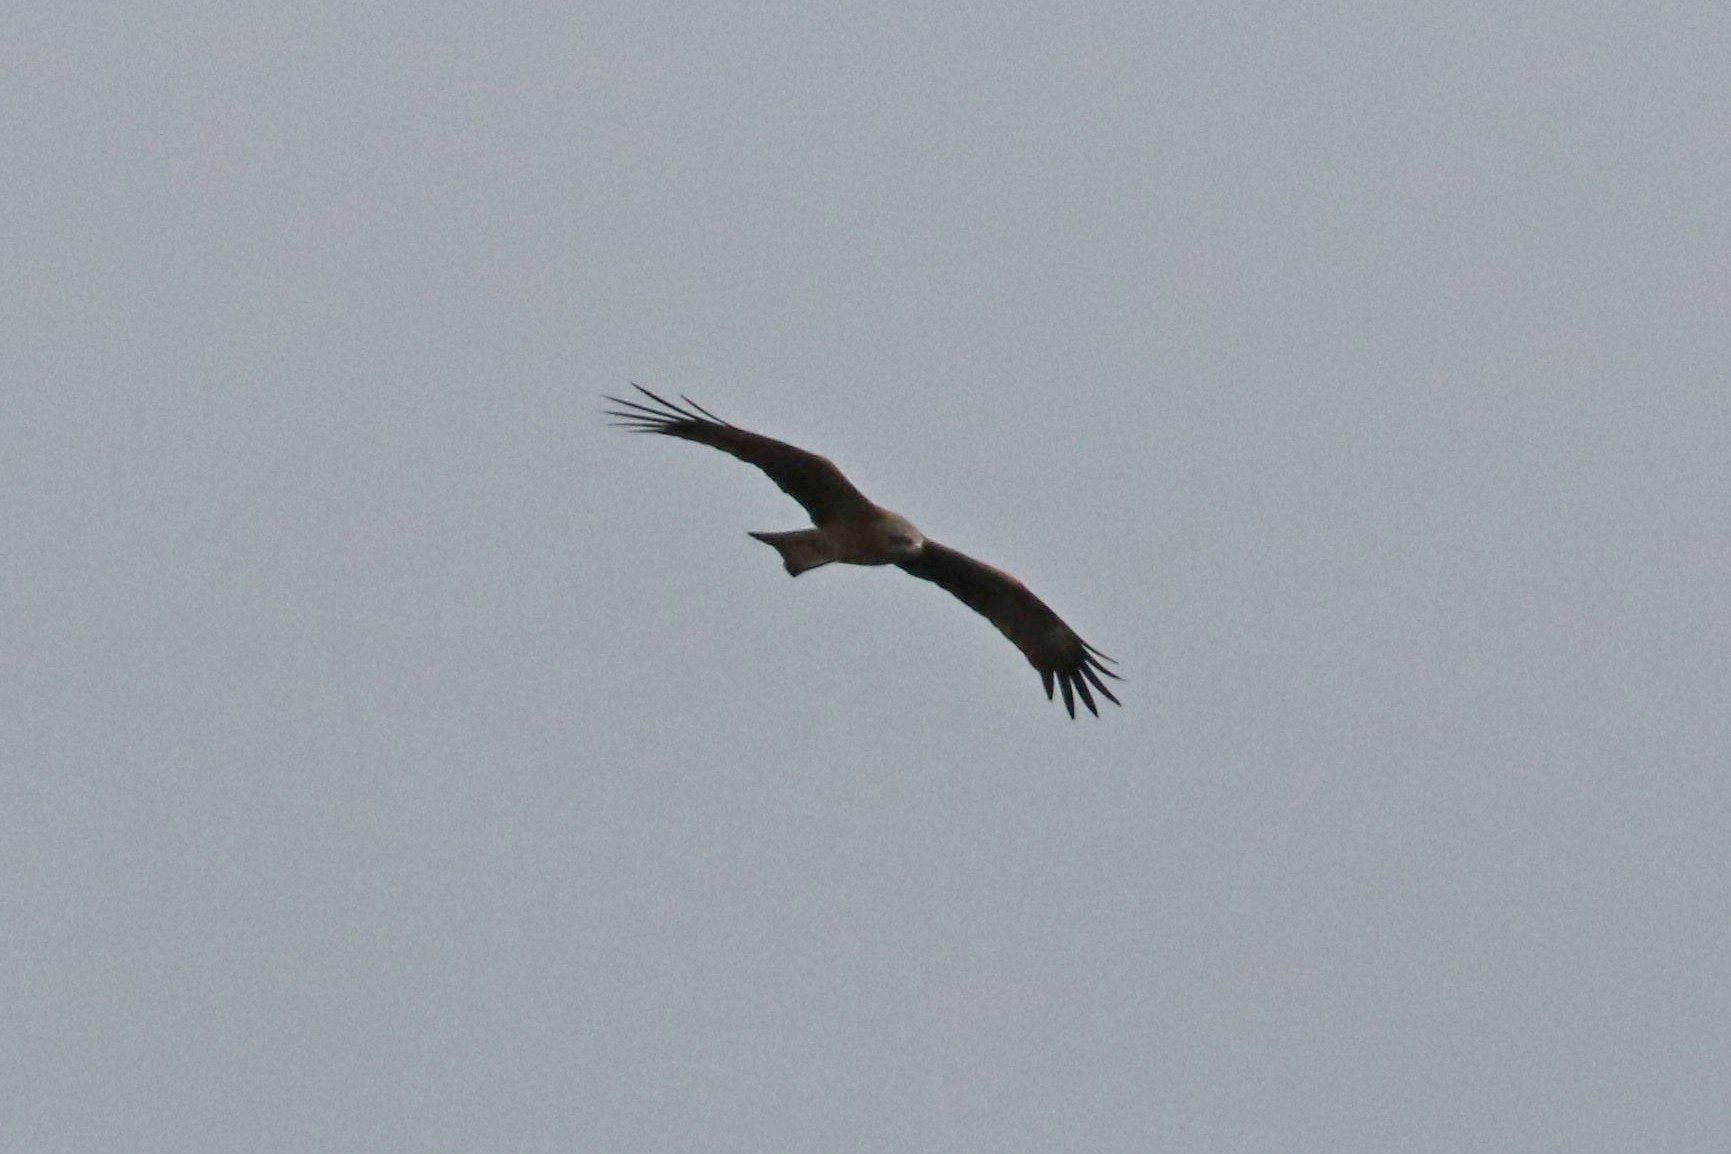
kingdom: Animalia
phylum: Chordata
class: Aves
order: Accipitriformes
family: Accipitridae
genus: Milvus
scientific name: Milvus migrans
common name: Black kite
